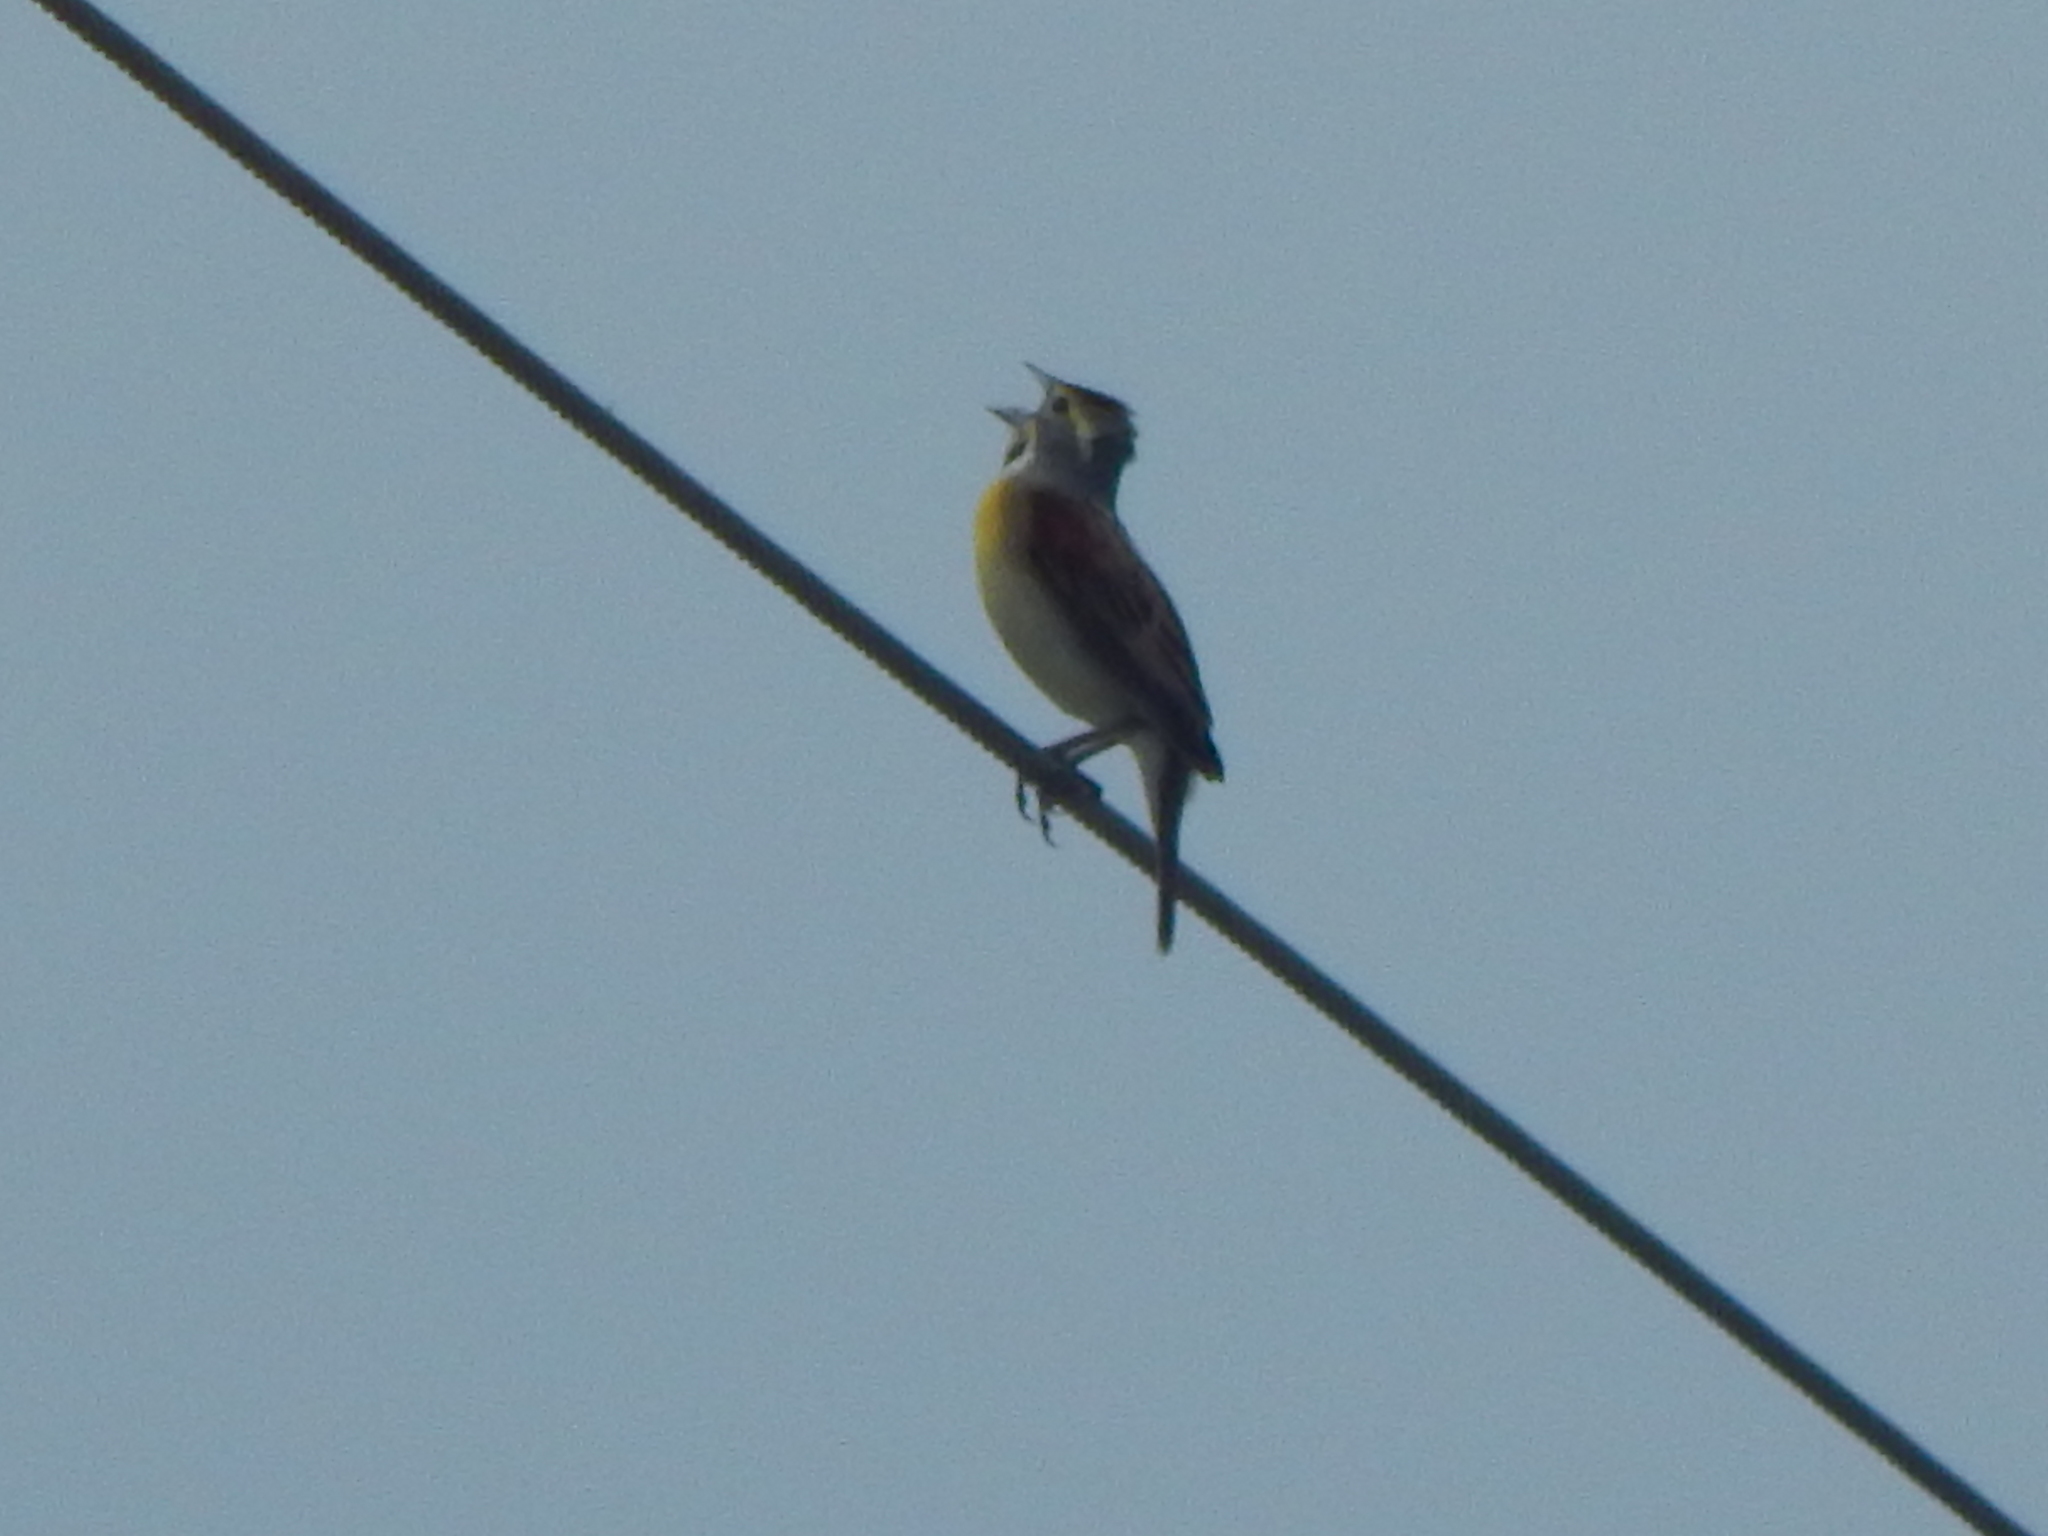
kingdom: Animalia
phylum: Chordata
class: Aves
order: Passeriformes
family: Cardinalidae
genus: Spiza
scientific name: Spiza americana
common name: Dickcissel
